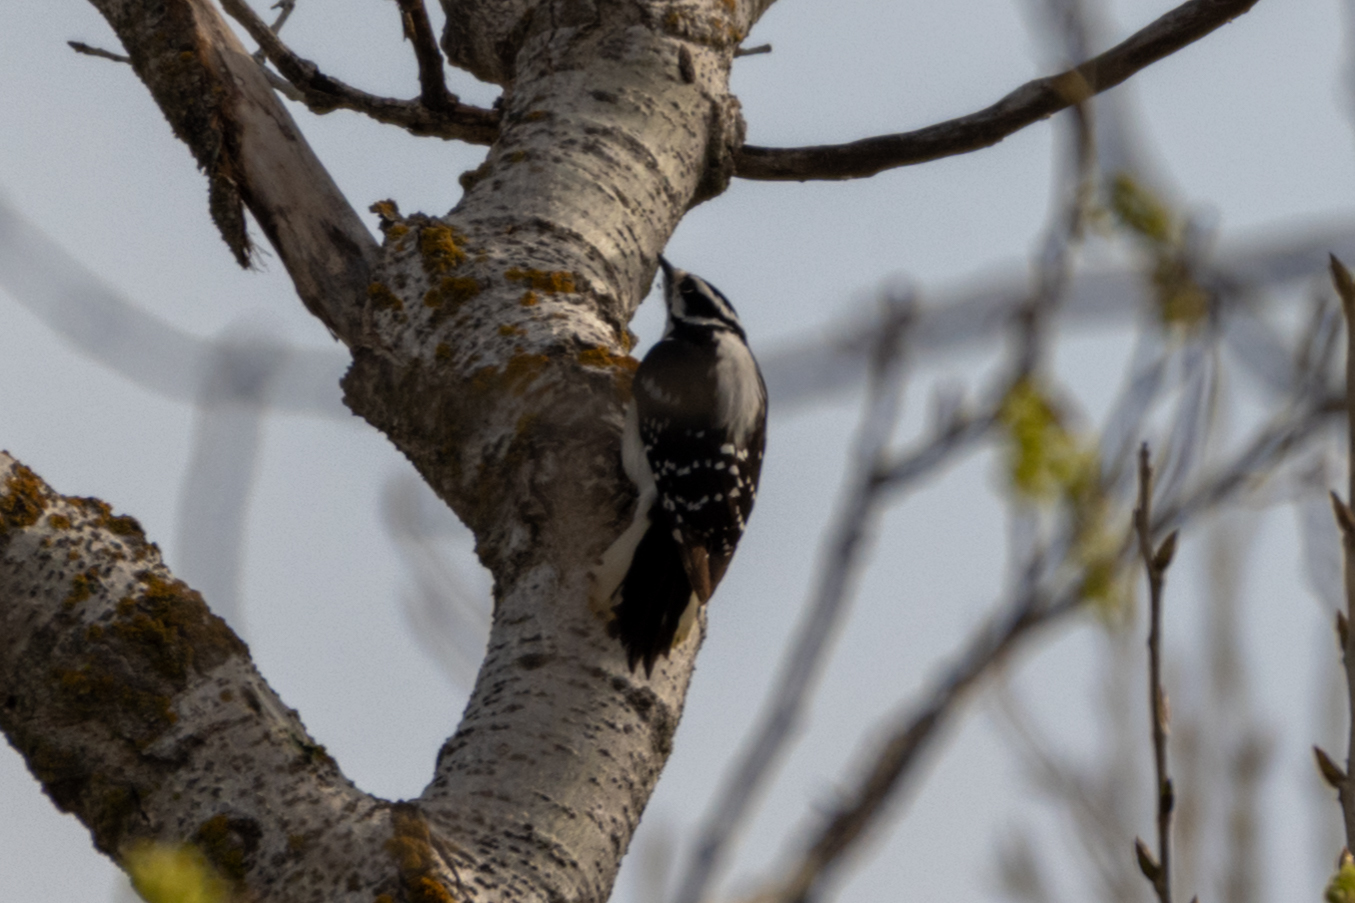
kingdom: Animalia
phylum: Chordata
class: Aves
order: Piciformes
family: Picidae
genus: Dryobates
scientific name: Dryobates pubescens
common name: Downy woodpecker
